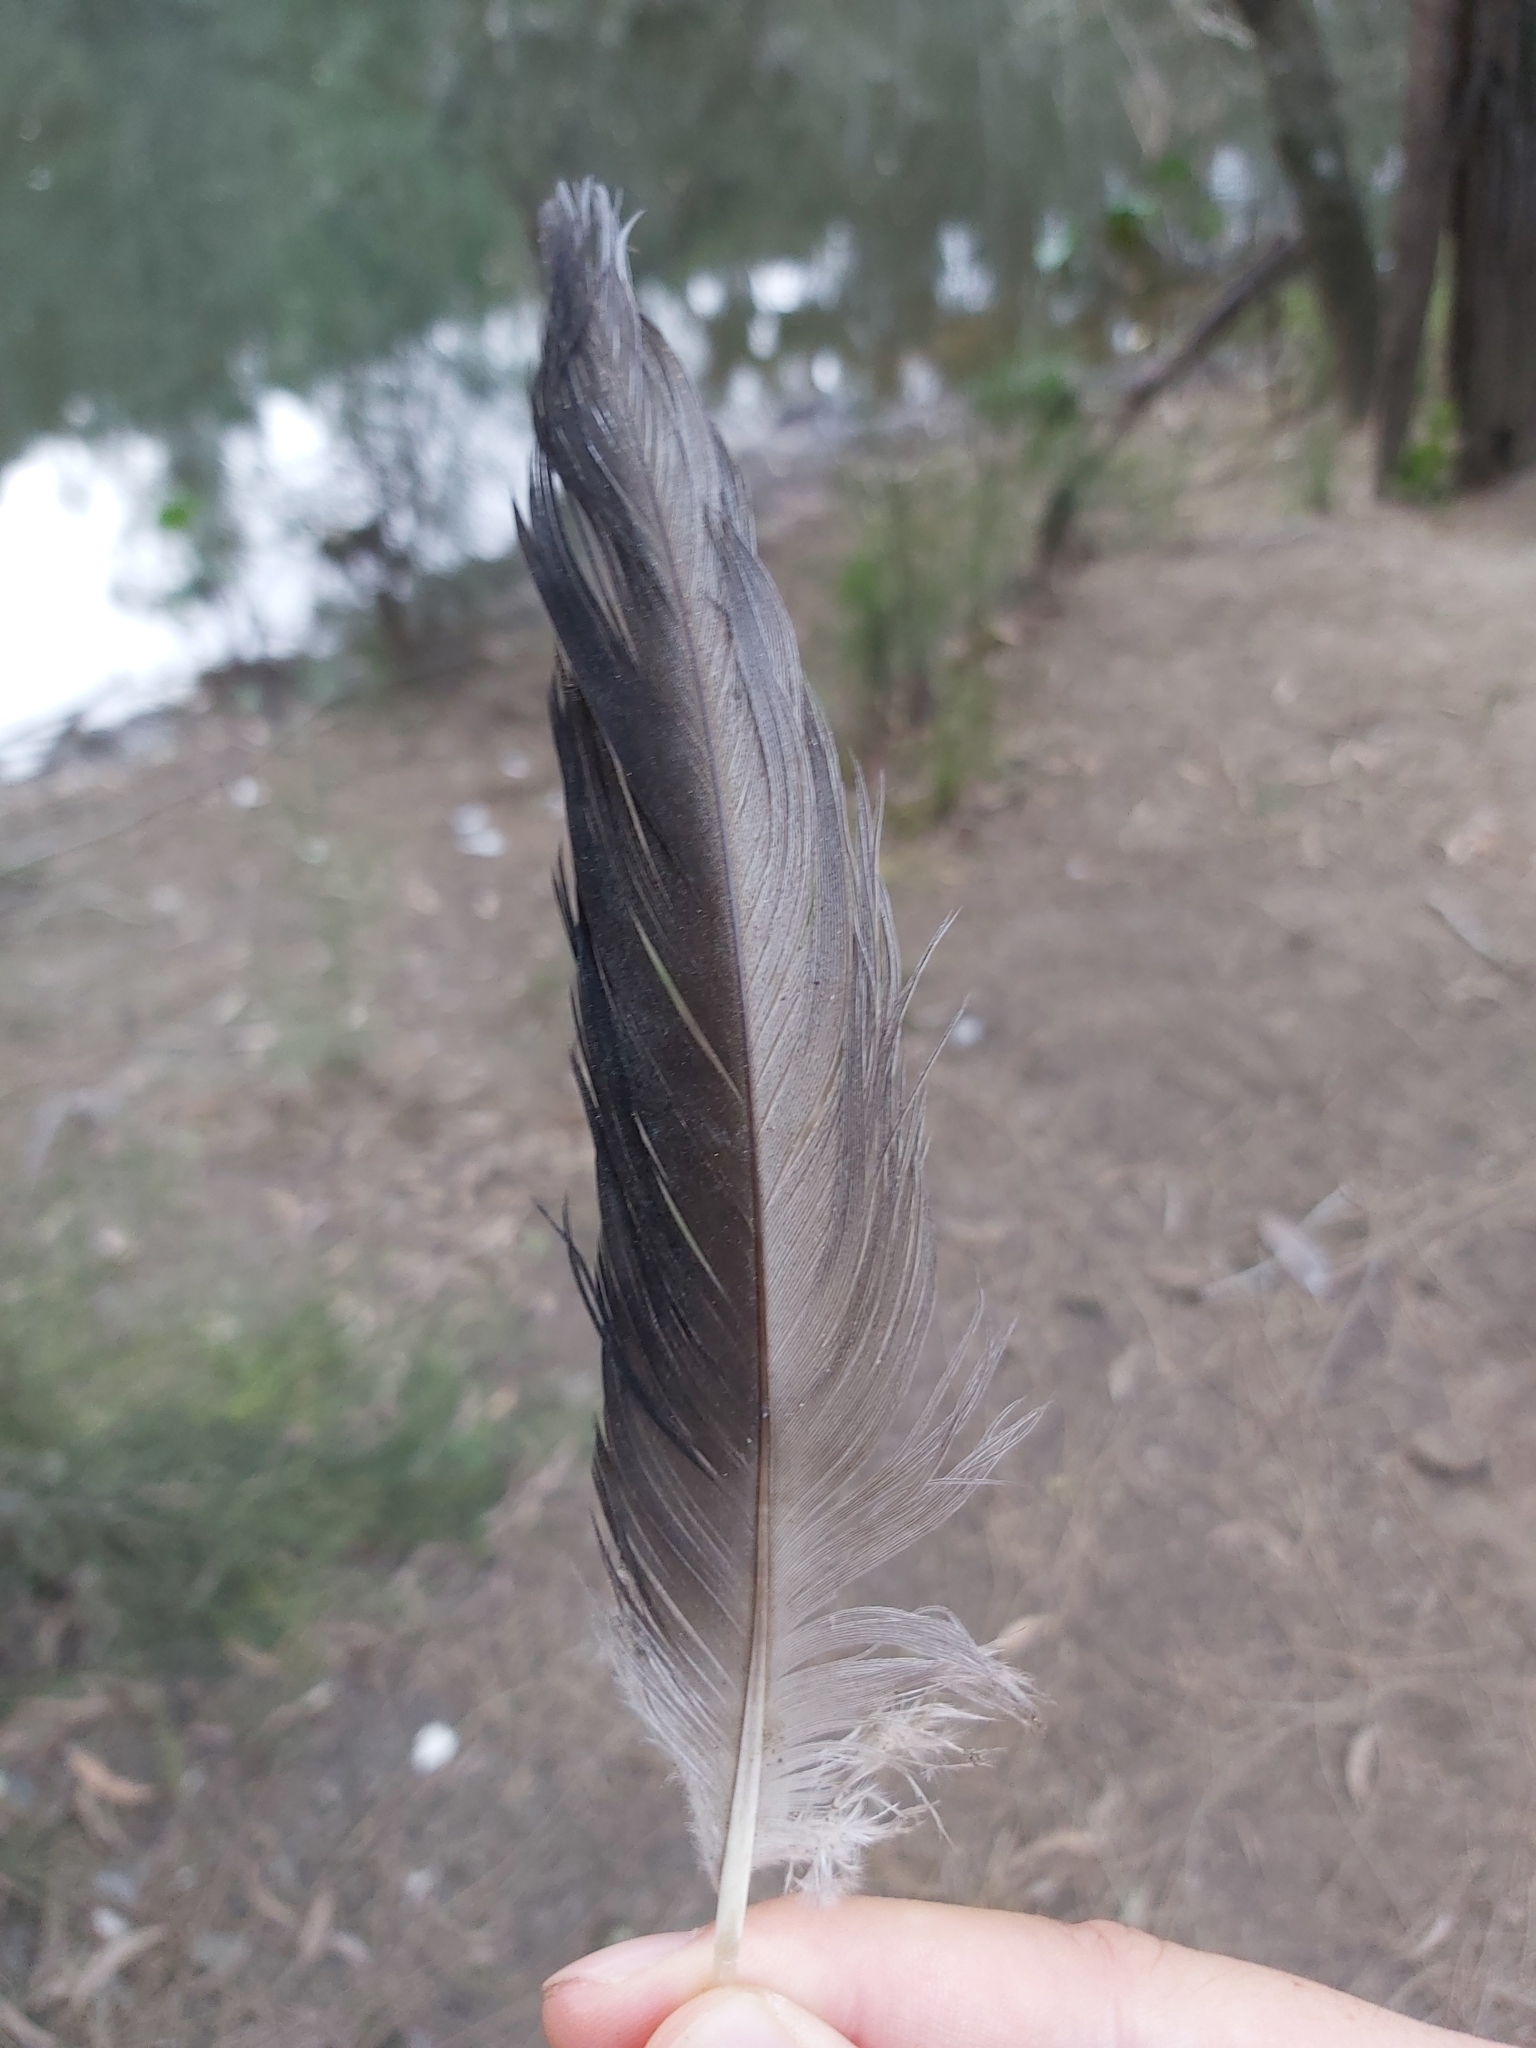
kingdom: Animalia
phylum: Chordata
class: Aves
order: Anseriformes
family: Anatidae
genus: Chenonetta
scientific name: Chenonetta jubata
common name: Maned duck
